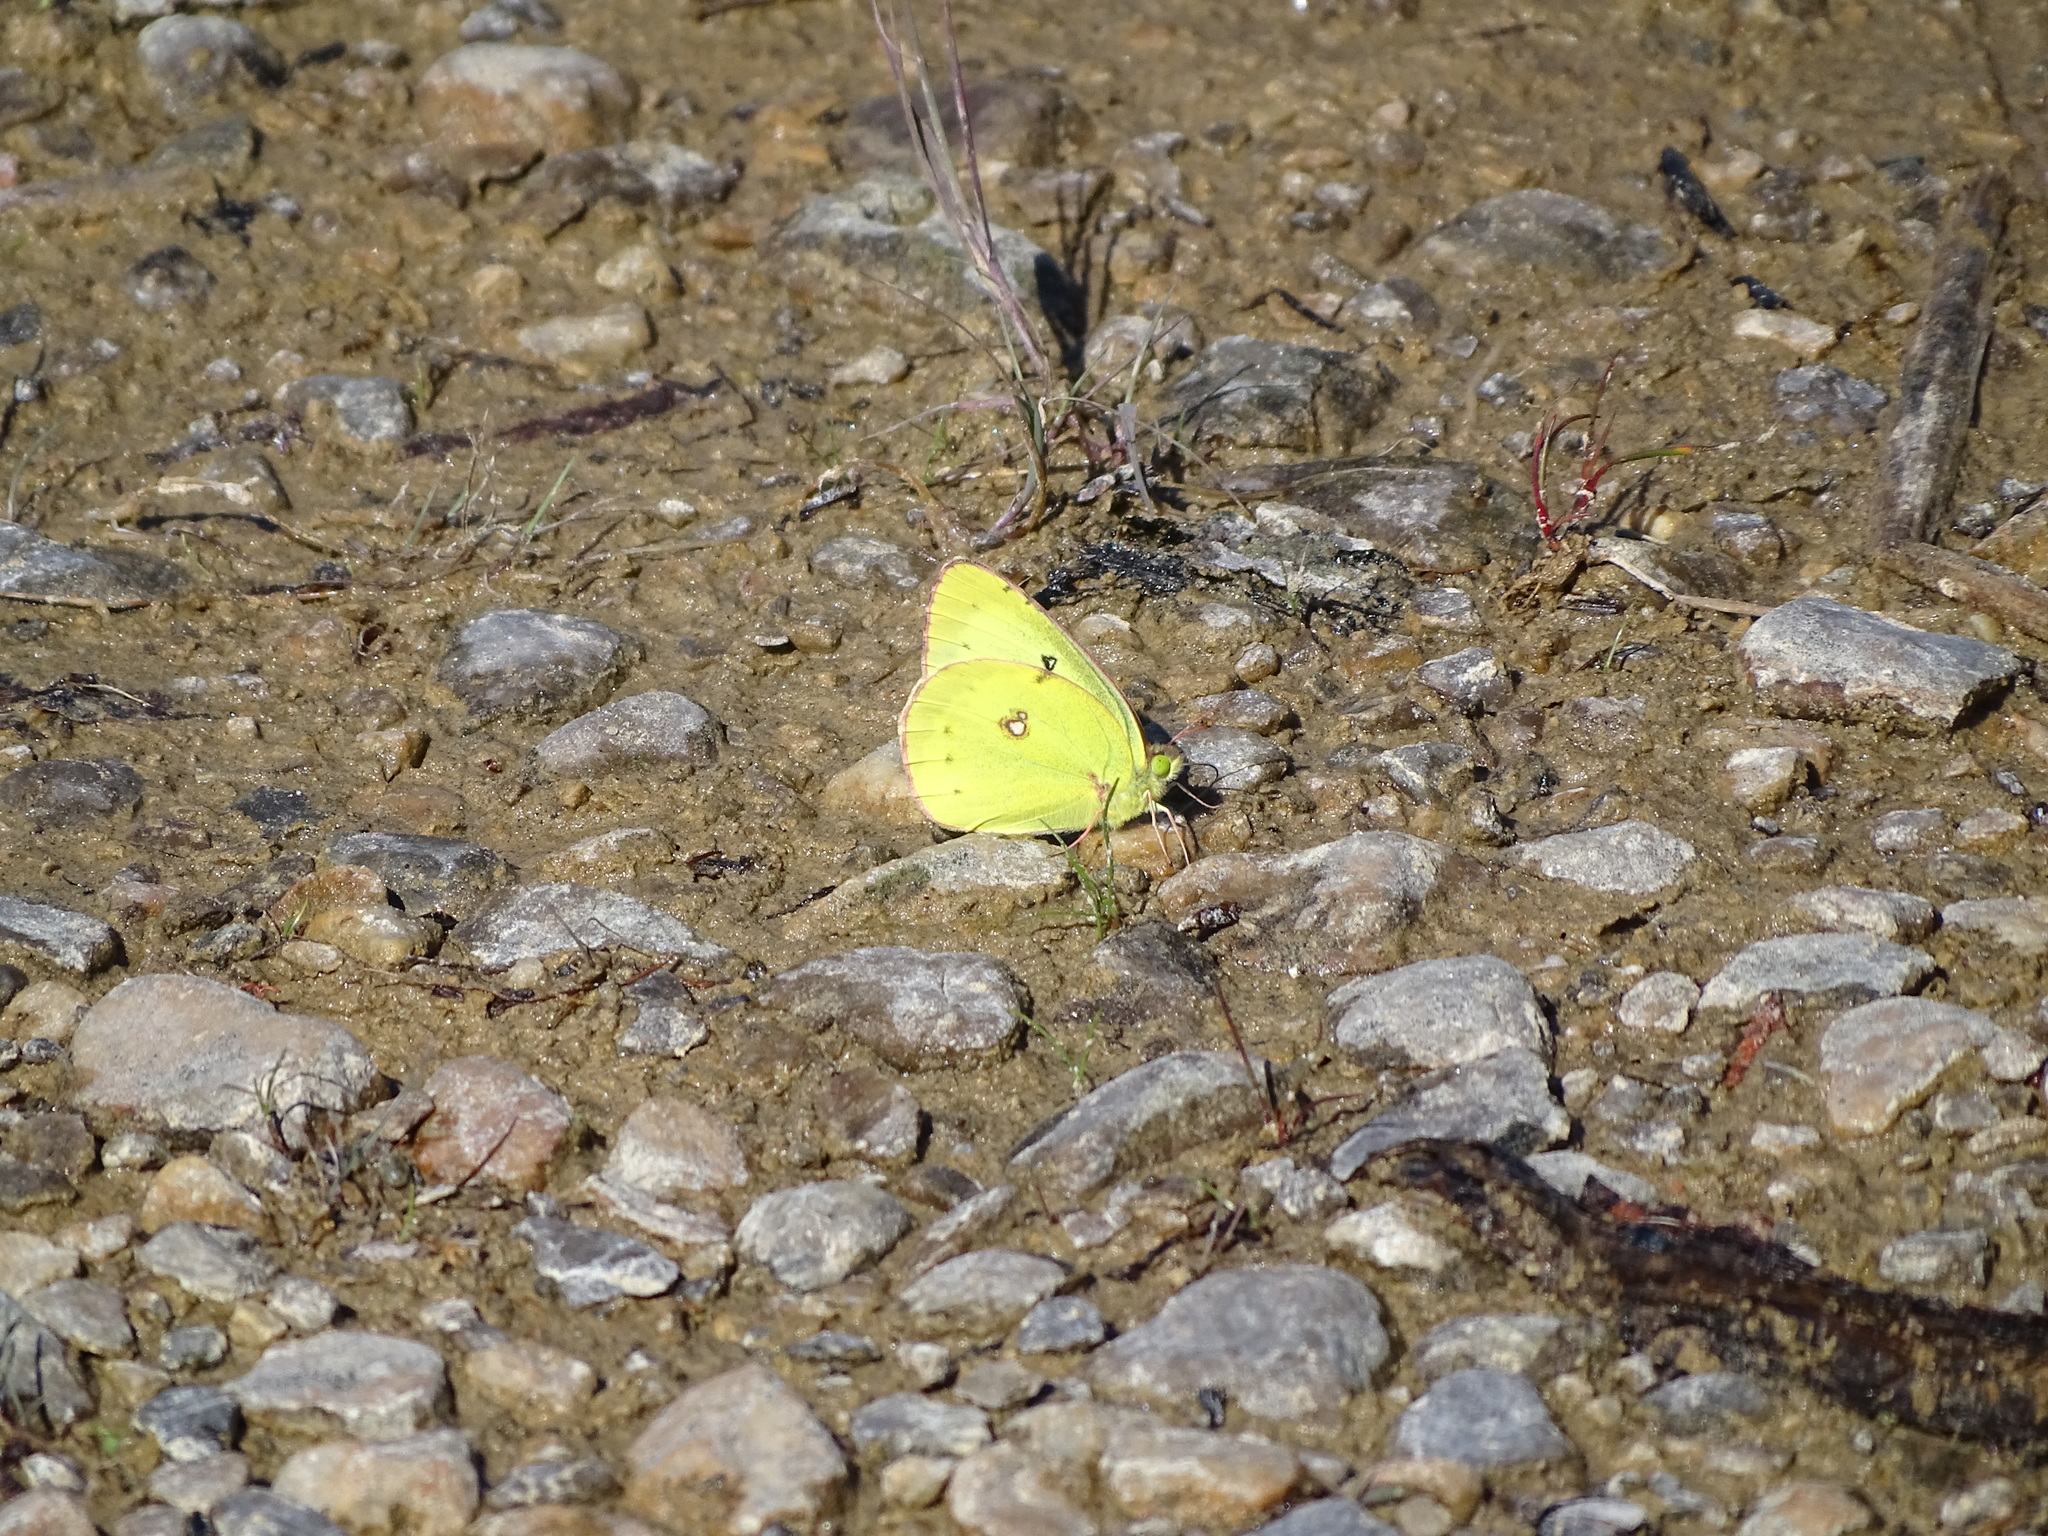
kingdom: Animalia
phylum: Arthropoda
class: Insecta
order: Lepidoptera
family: Pieridae
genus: Colias
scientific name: Colias philodice
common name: Clouded sulphur
